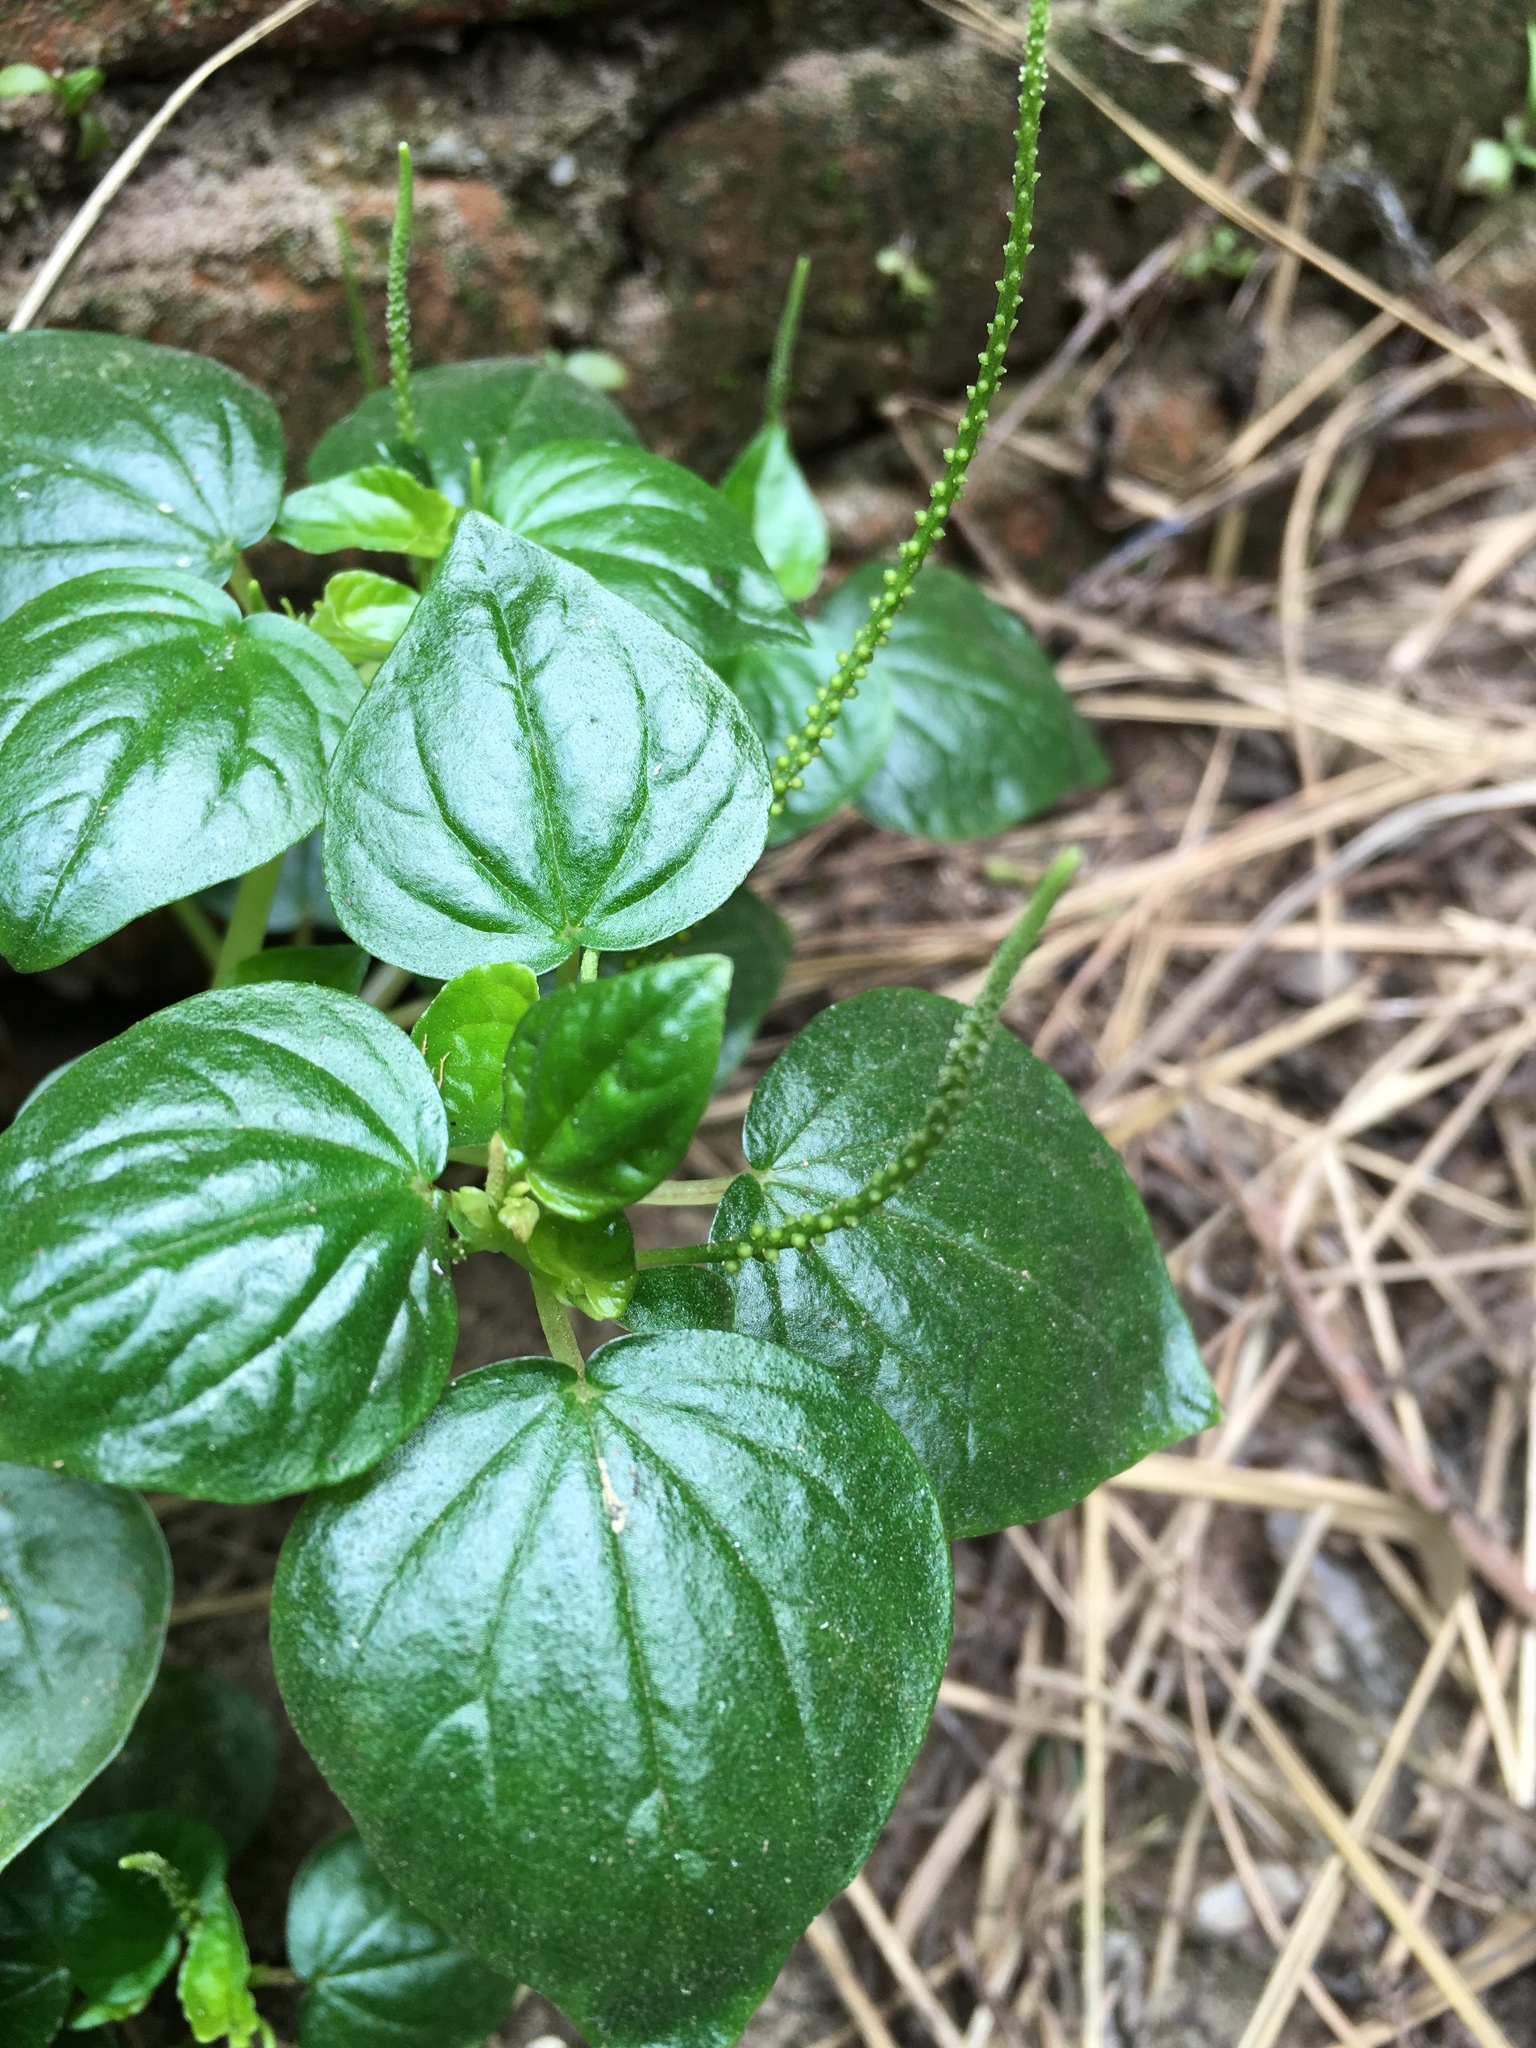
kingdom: Plantae
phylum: Tracheophyta
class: Magnoliopsida
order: Piperales
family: Piperaceae
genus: Peperomia
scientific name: Peperomia pellucida
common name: Man to man
